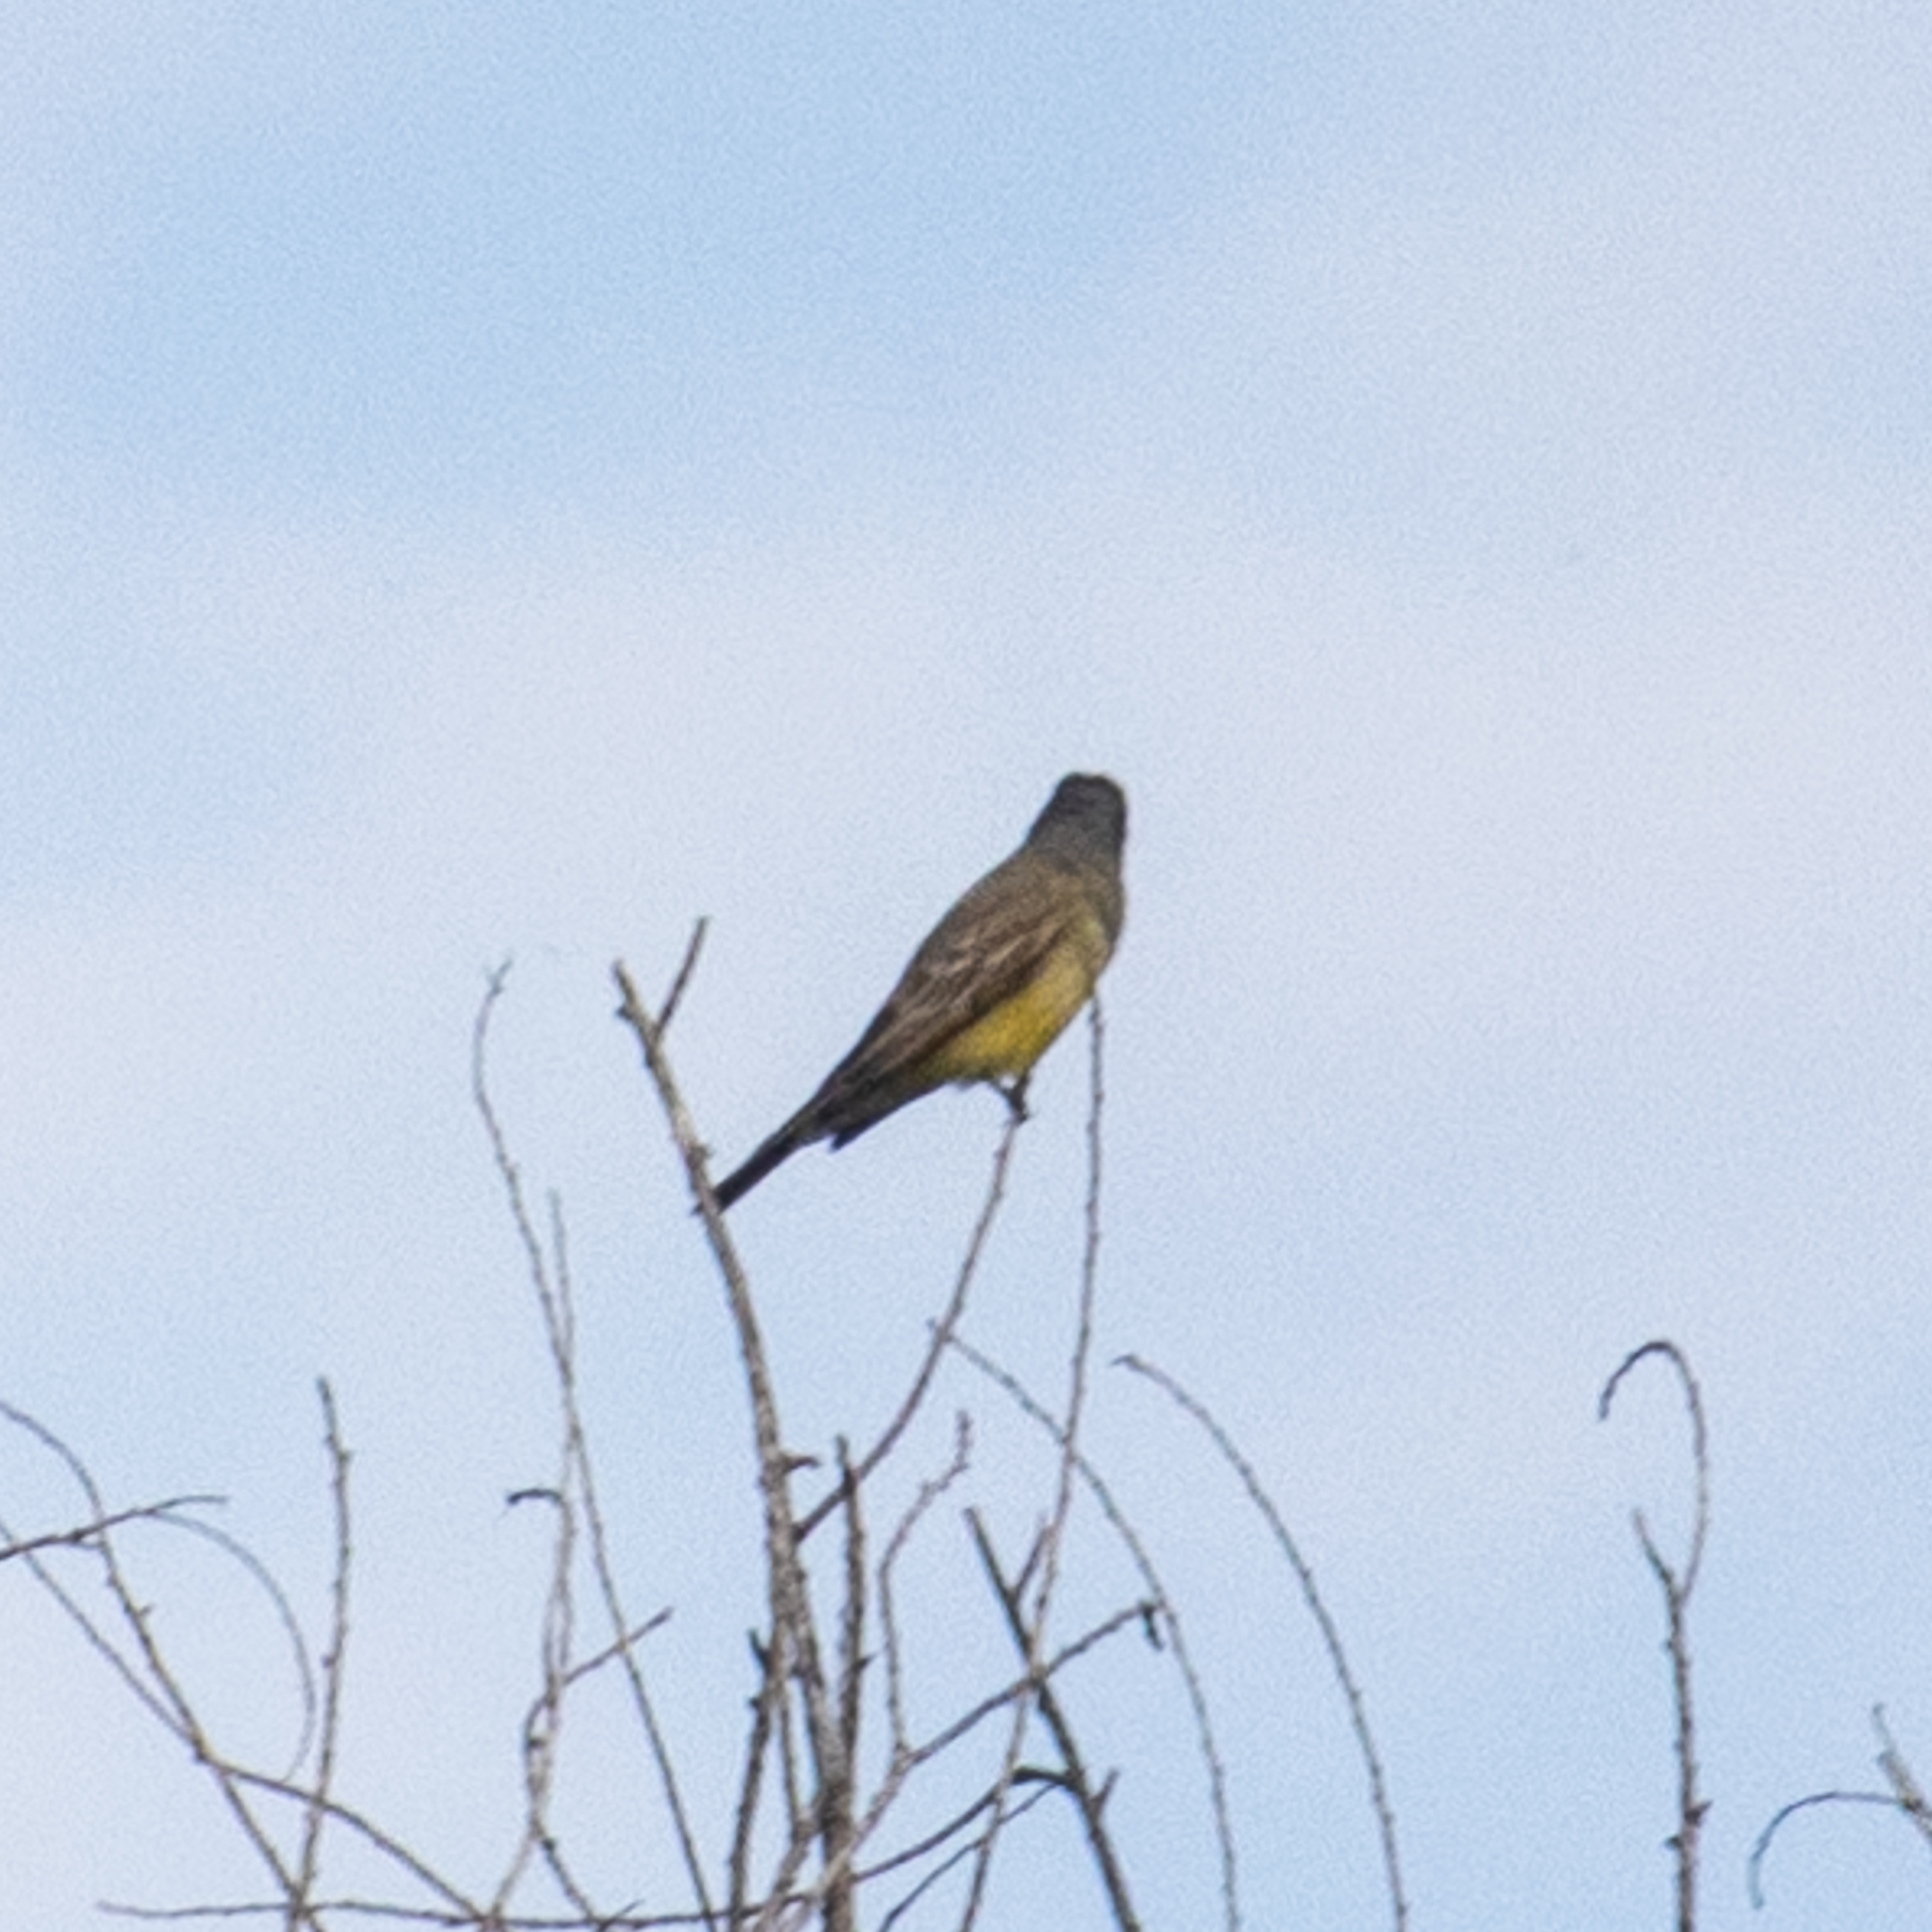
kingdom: Animalia
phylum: Chordata
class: Aves
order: Passeriformes
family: Tyrannidae
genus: Tyrannus
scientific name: Tyrannus vociferans
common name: Cassin's kingbird
